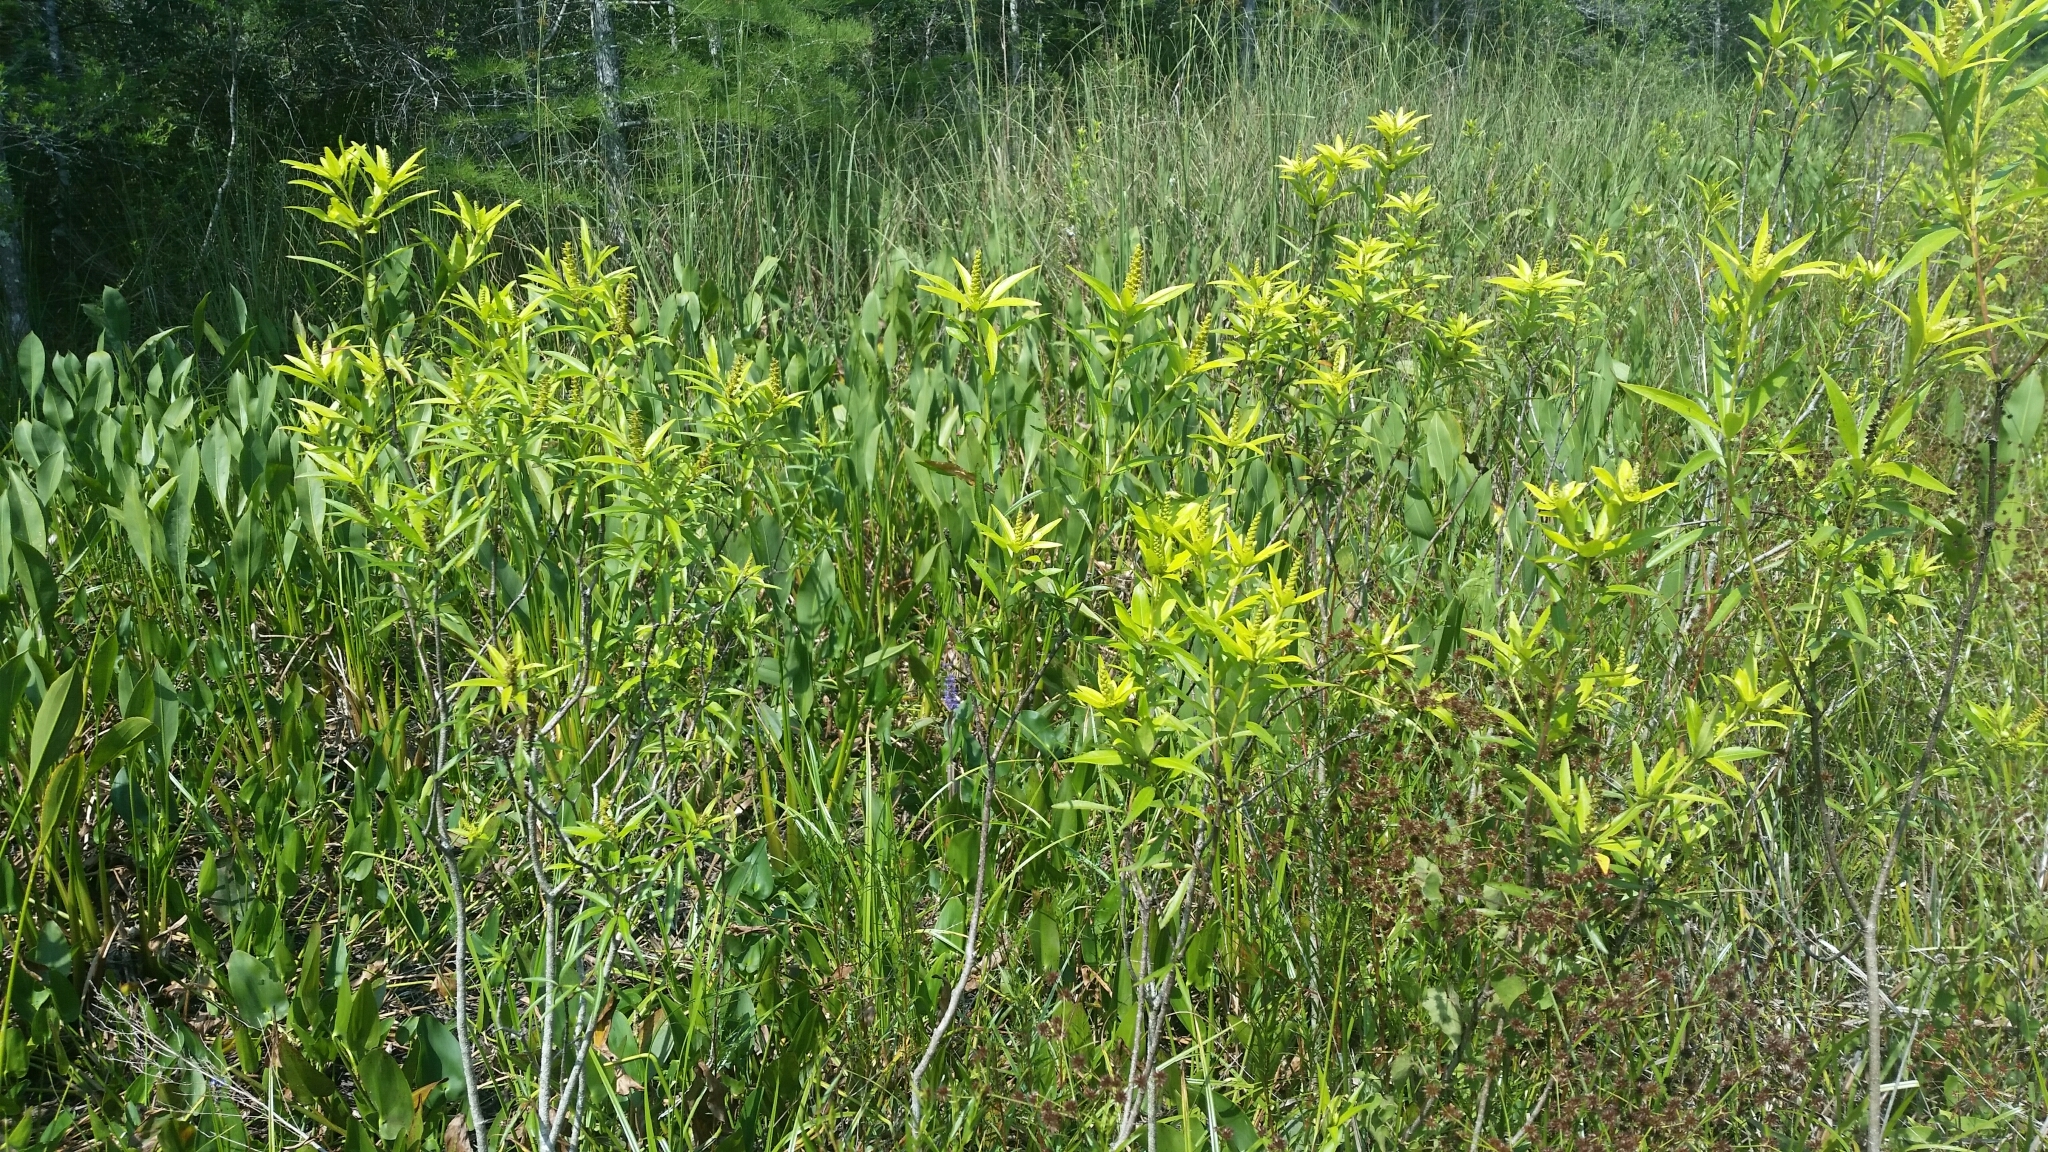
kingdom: Plantae
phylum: Tracheophyta
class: Magnoliopsida
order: Malpighiales
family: Euphorbiaceae
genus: Stillingia
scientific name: Stillingia aquatica
